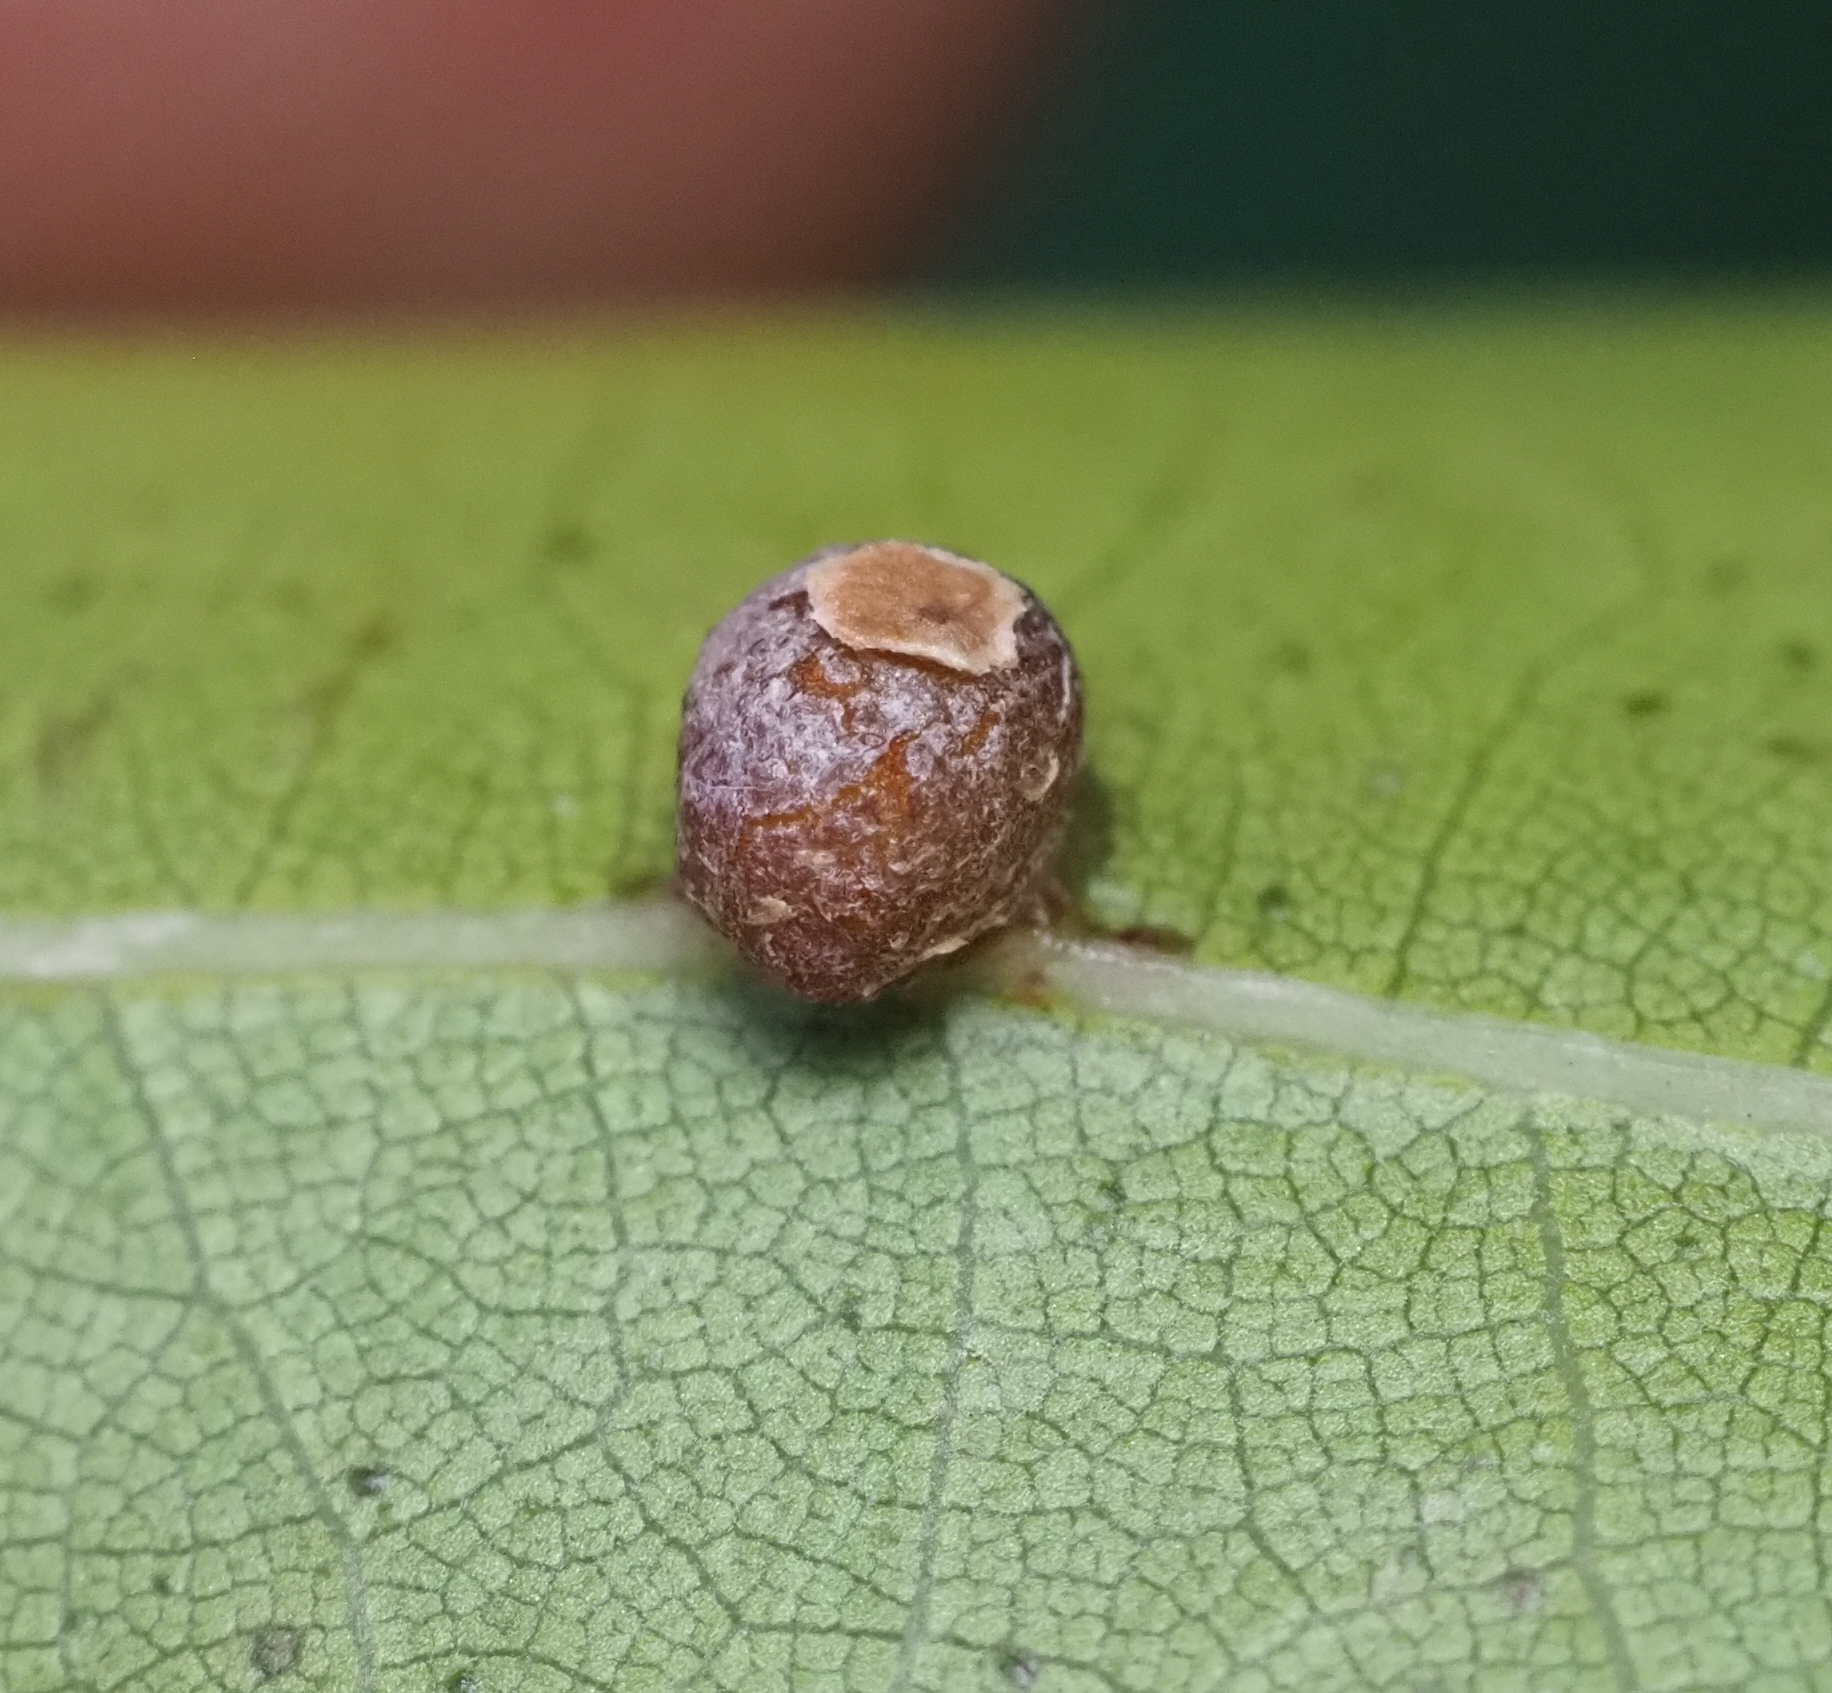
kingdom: Animalia
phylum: Arthropoda
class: Insecta
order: Diptera
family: Cecidomyiidae
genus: Polystepha
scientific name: Polystepha globosa
